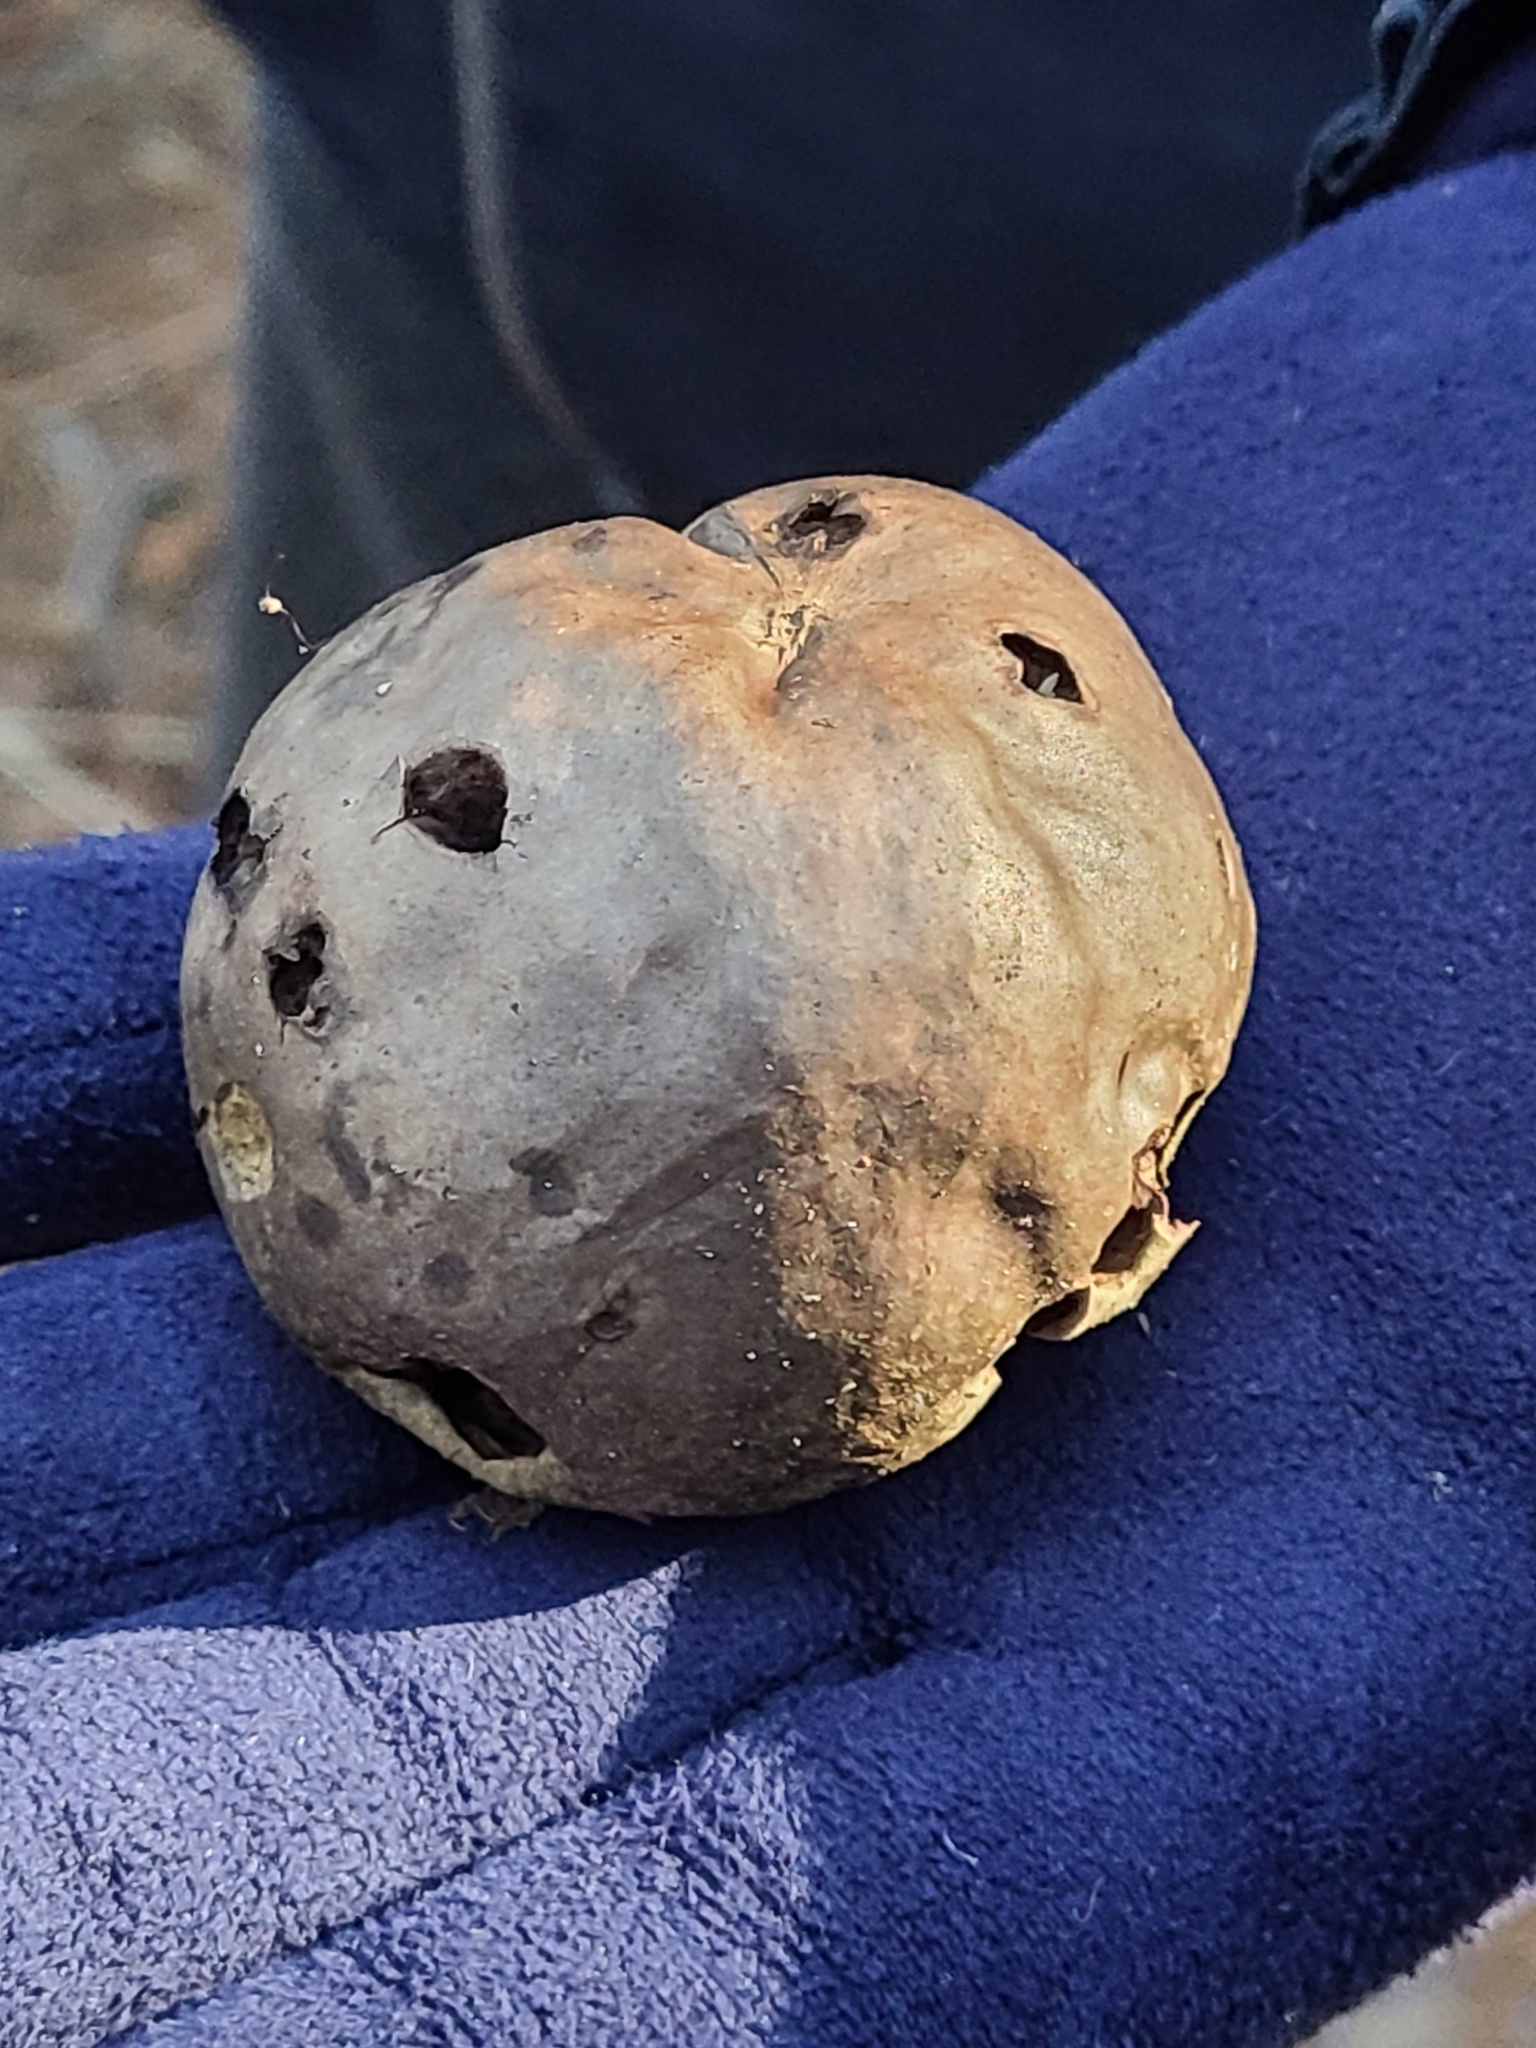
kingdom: Fungi
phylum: Basidiomycota
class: Agaricomycetes
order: Agaricales
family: Lycoperdaceae
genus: Calvatia
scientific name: Calvatia cyathiformis
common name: Purple-spored puffball
